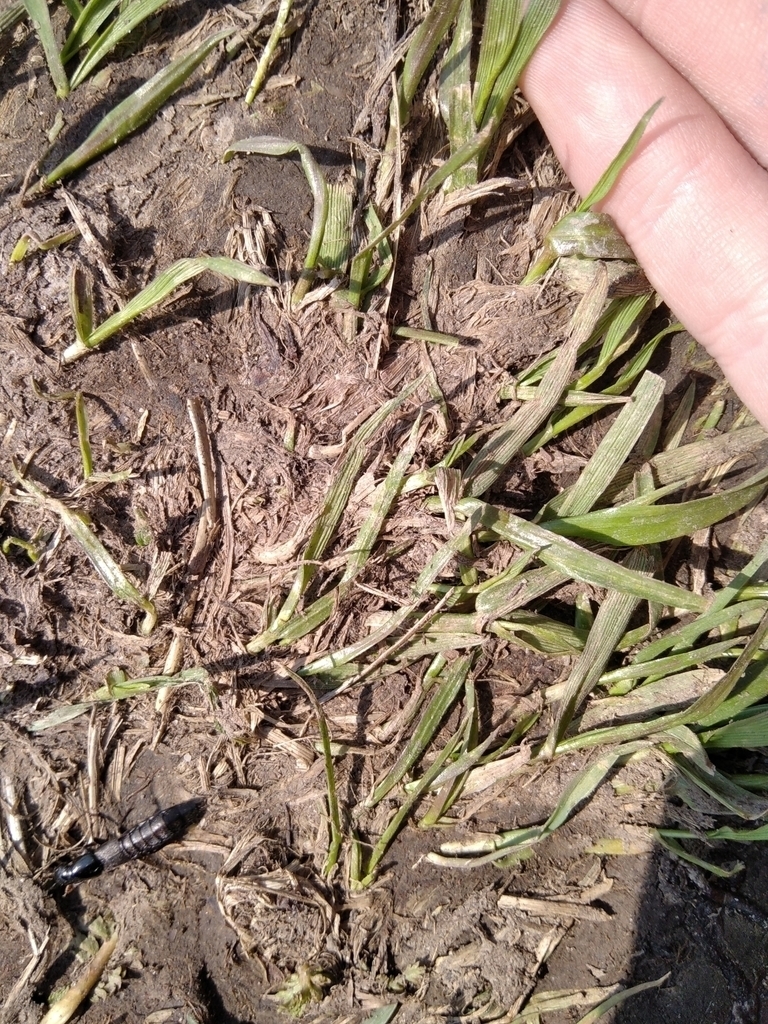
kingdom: Animalia
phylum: Arthropoda
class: Insecta
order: Coleoptera
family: Staphyliniae
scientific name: Staphyliniae
